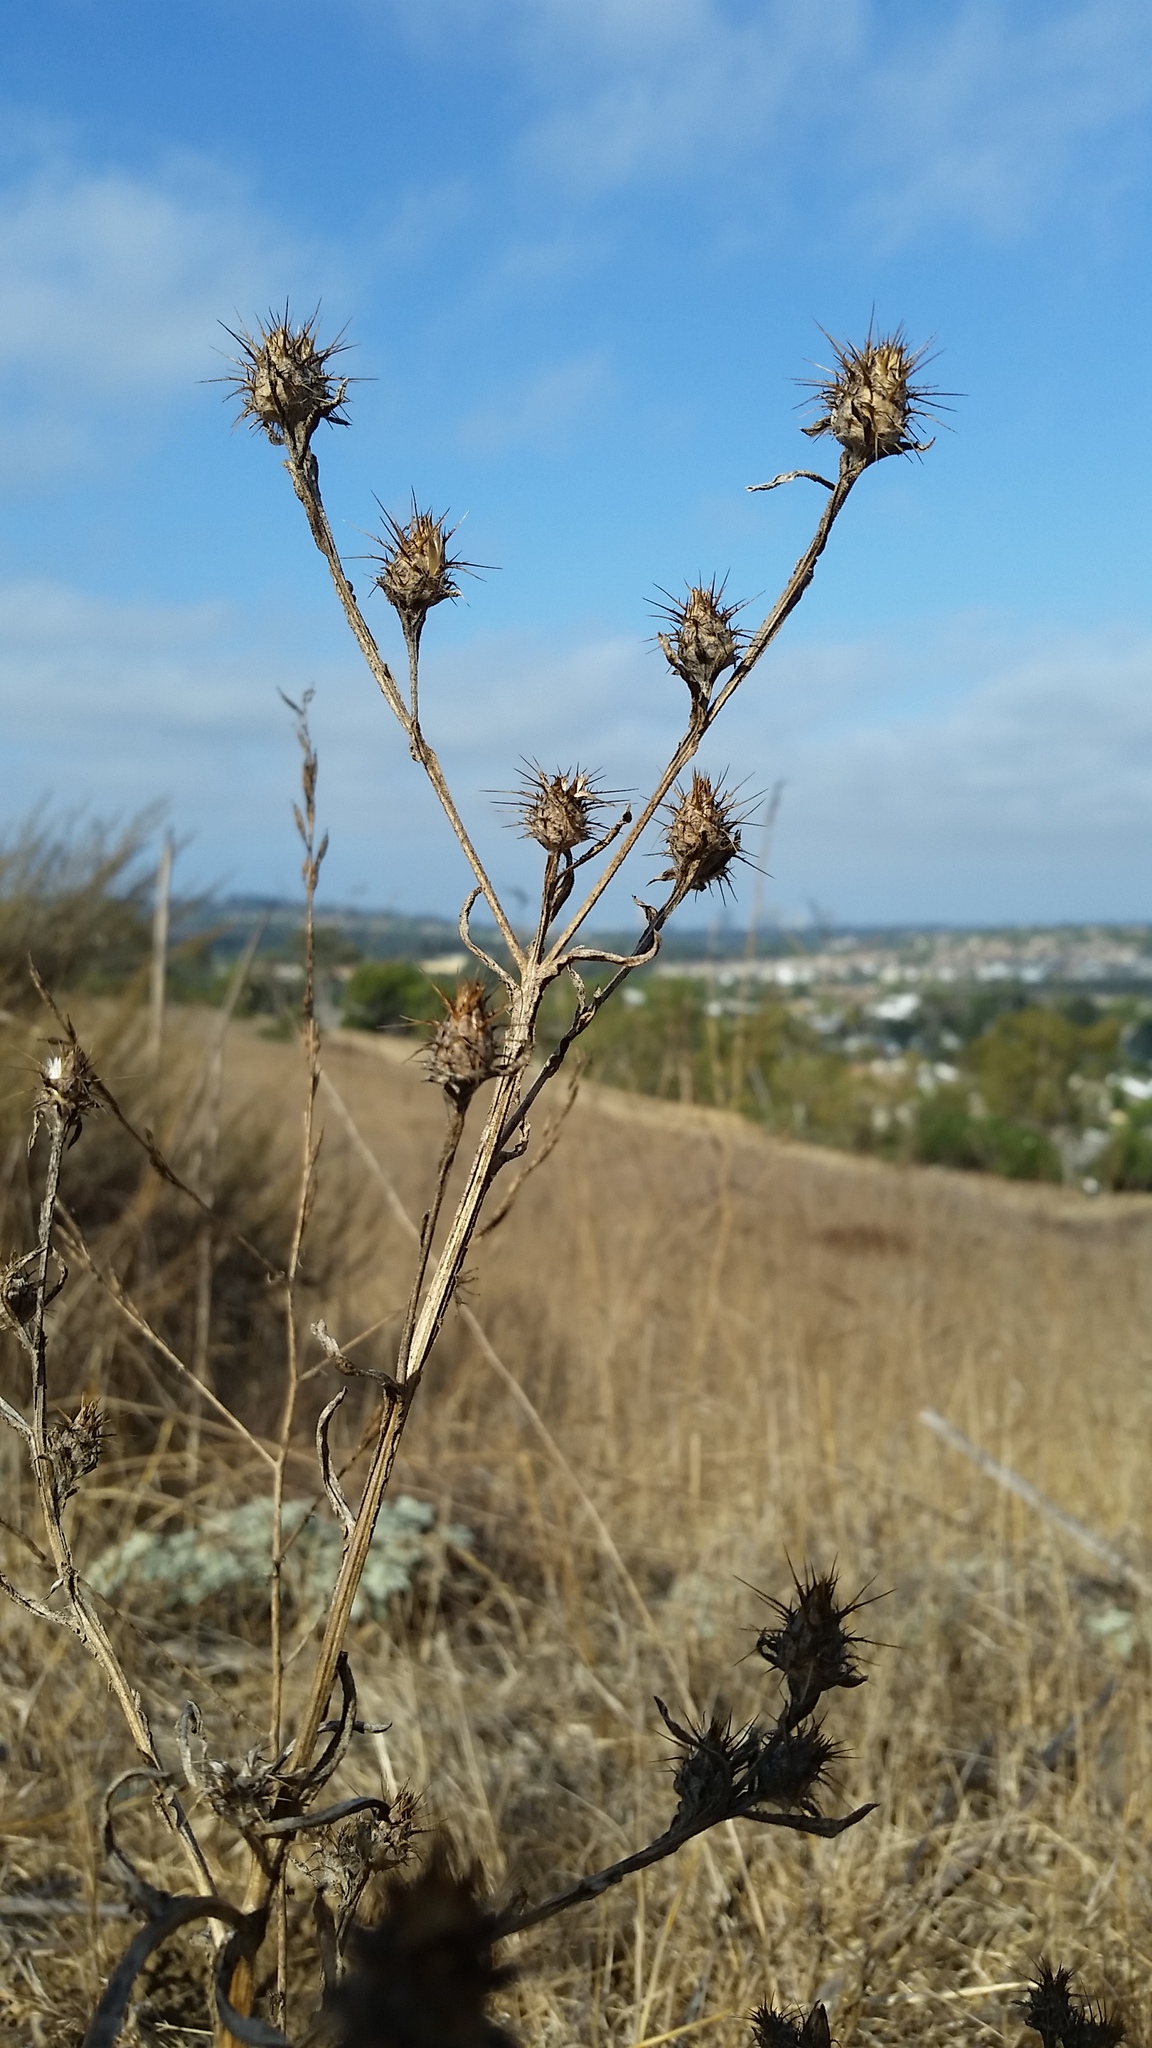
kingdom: Plantae
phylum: Tracheophyta
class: Magnoliopsida
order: Asterales
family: Asteraceae
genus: Centaurea
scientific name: Centaurea melitensis
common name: Maltese star-thistle
